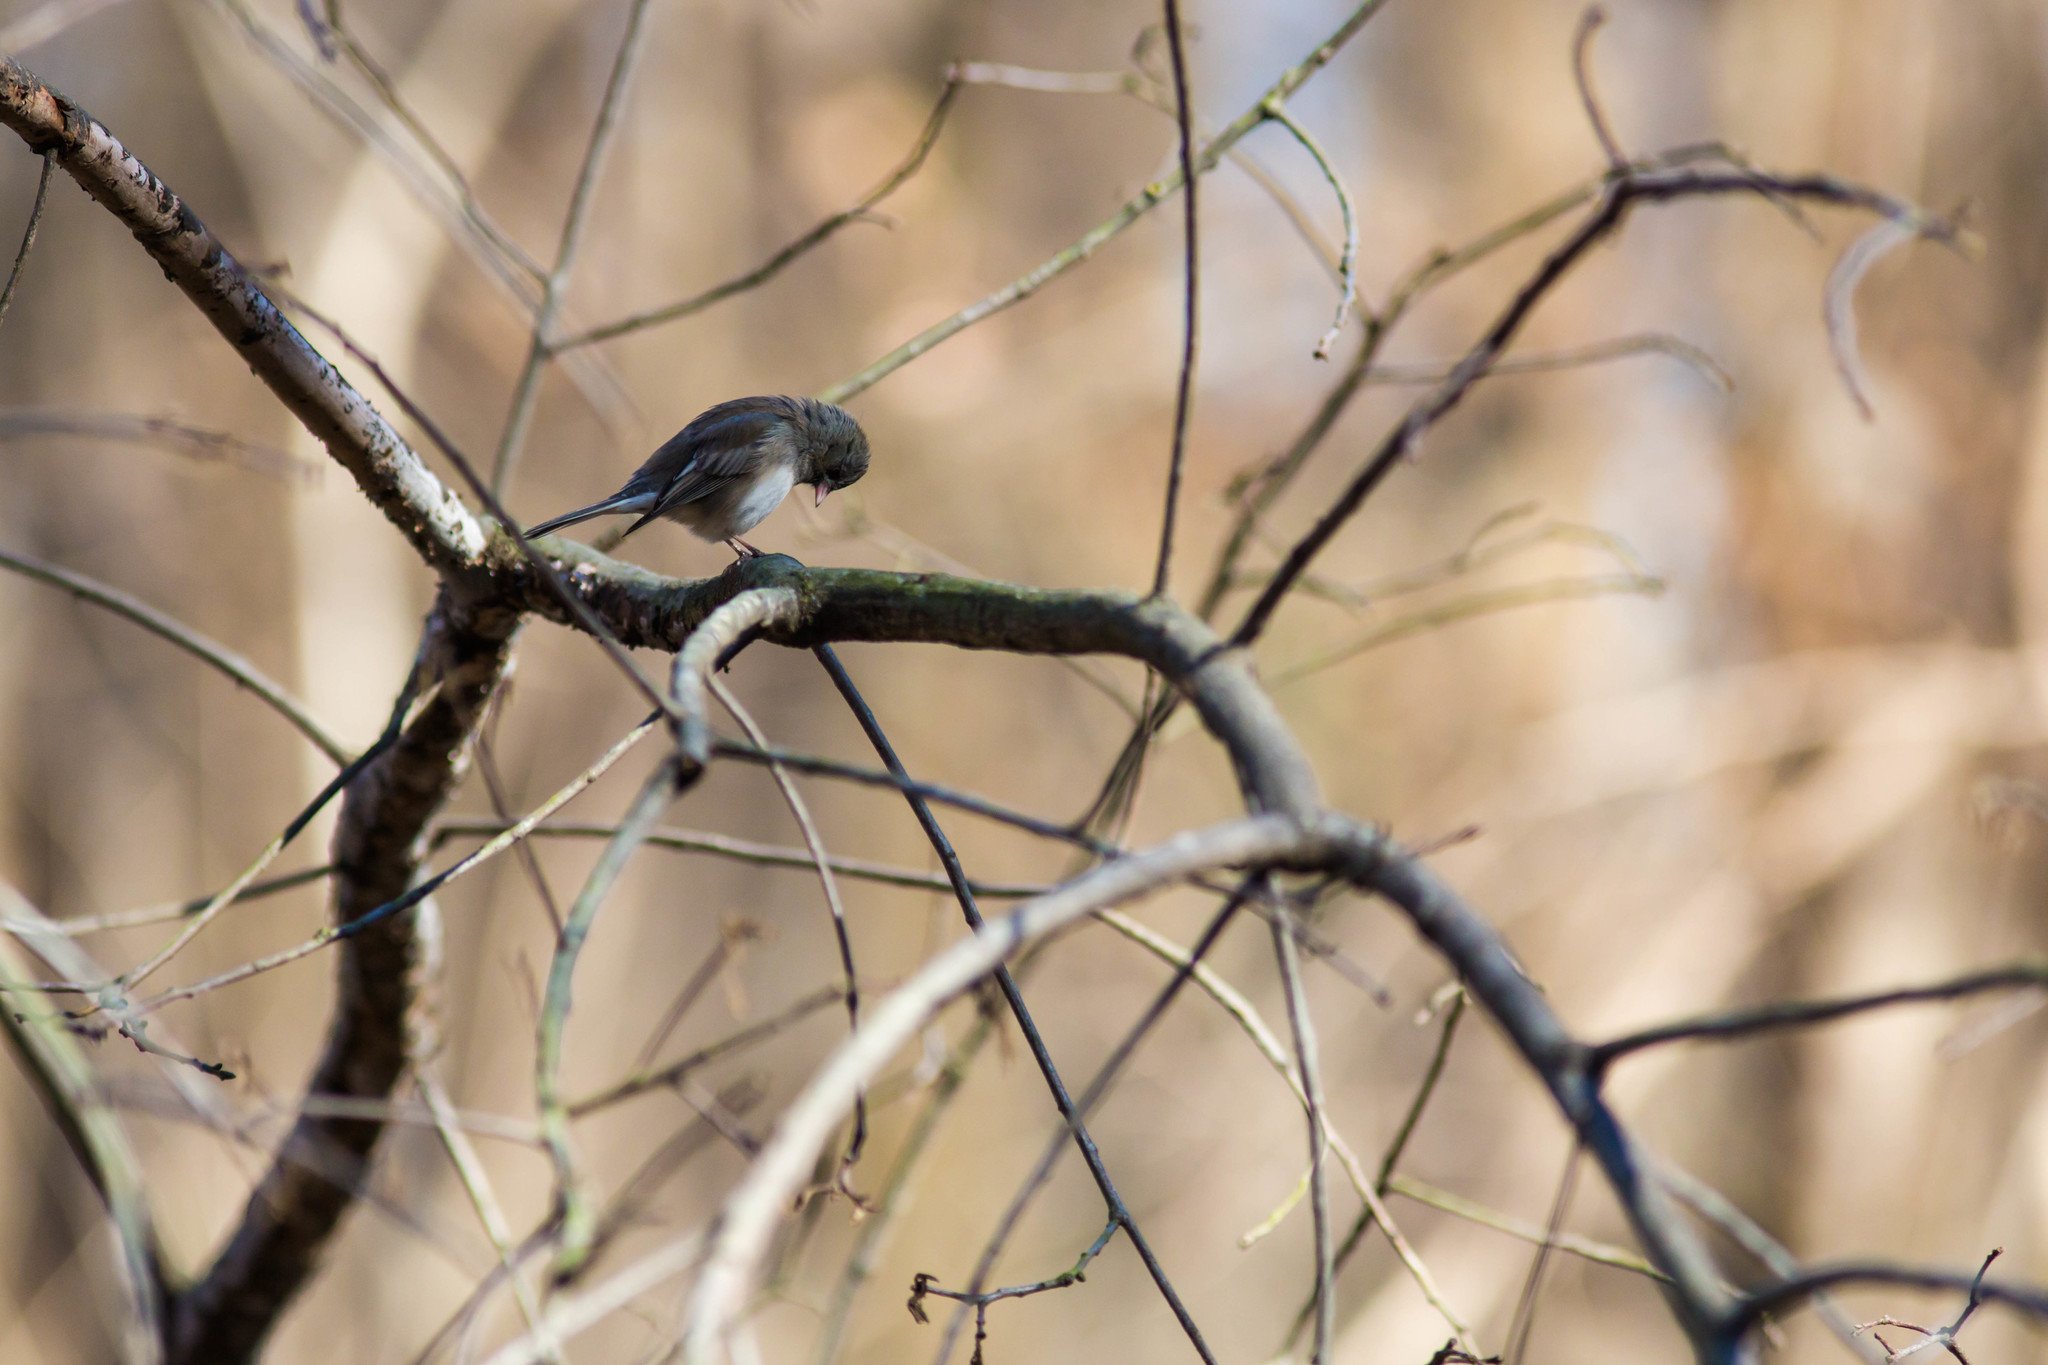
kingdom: Animalia
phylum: Chordata
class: Aves
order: Passeriformes
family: Passerellidae
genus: Junco
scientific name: Junco hyemalis
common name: Dark-eyed junco
